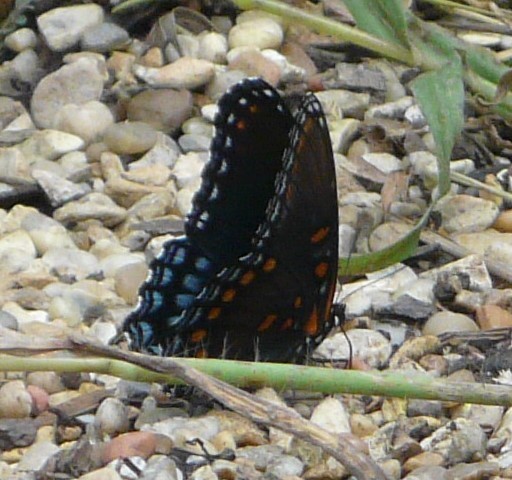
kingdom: Animalia
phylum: Arthropoda
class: Insecta
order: Lepidoptera
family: Nymphalidae
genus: Limenitis
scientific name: Limenitis astyanax
